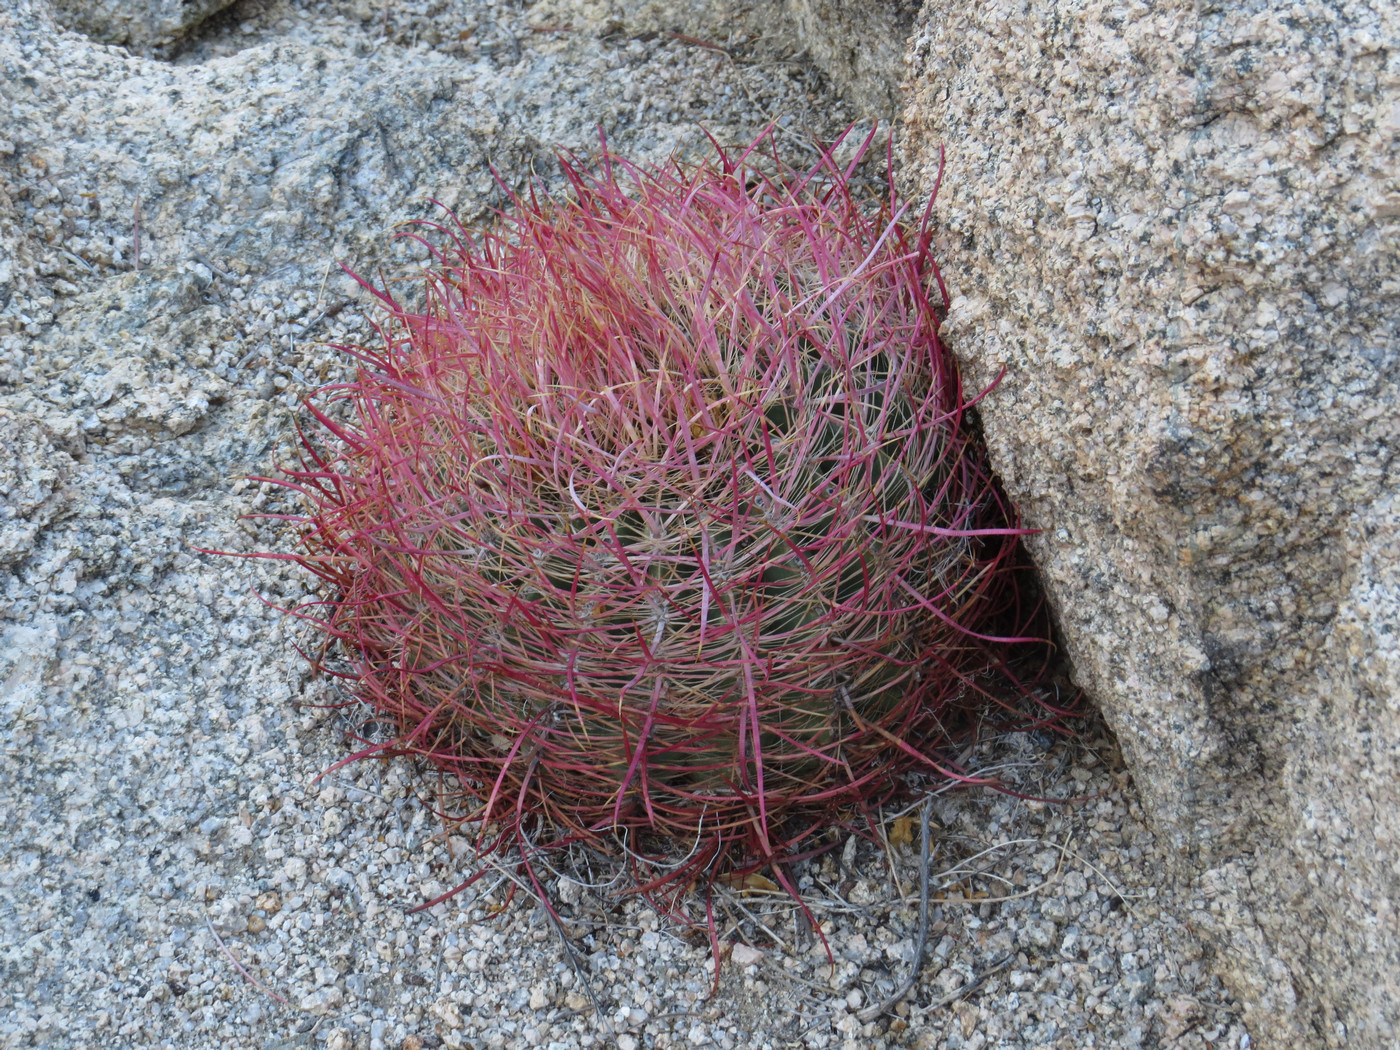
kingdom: Plantae
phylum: Tracheophyta
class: Magnoliopsida
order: Caryophyllales
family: Cactaceae
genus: Ferocactus
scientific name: Ferocactus cylindraceus
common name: California barrel cactus
